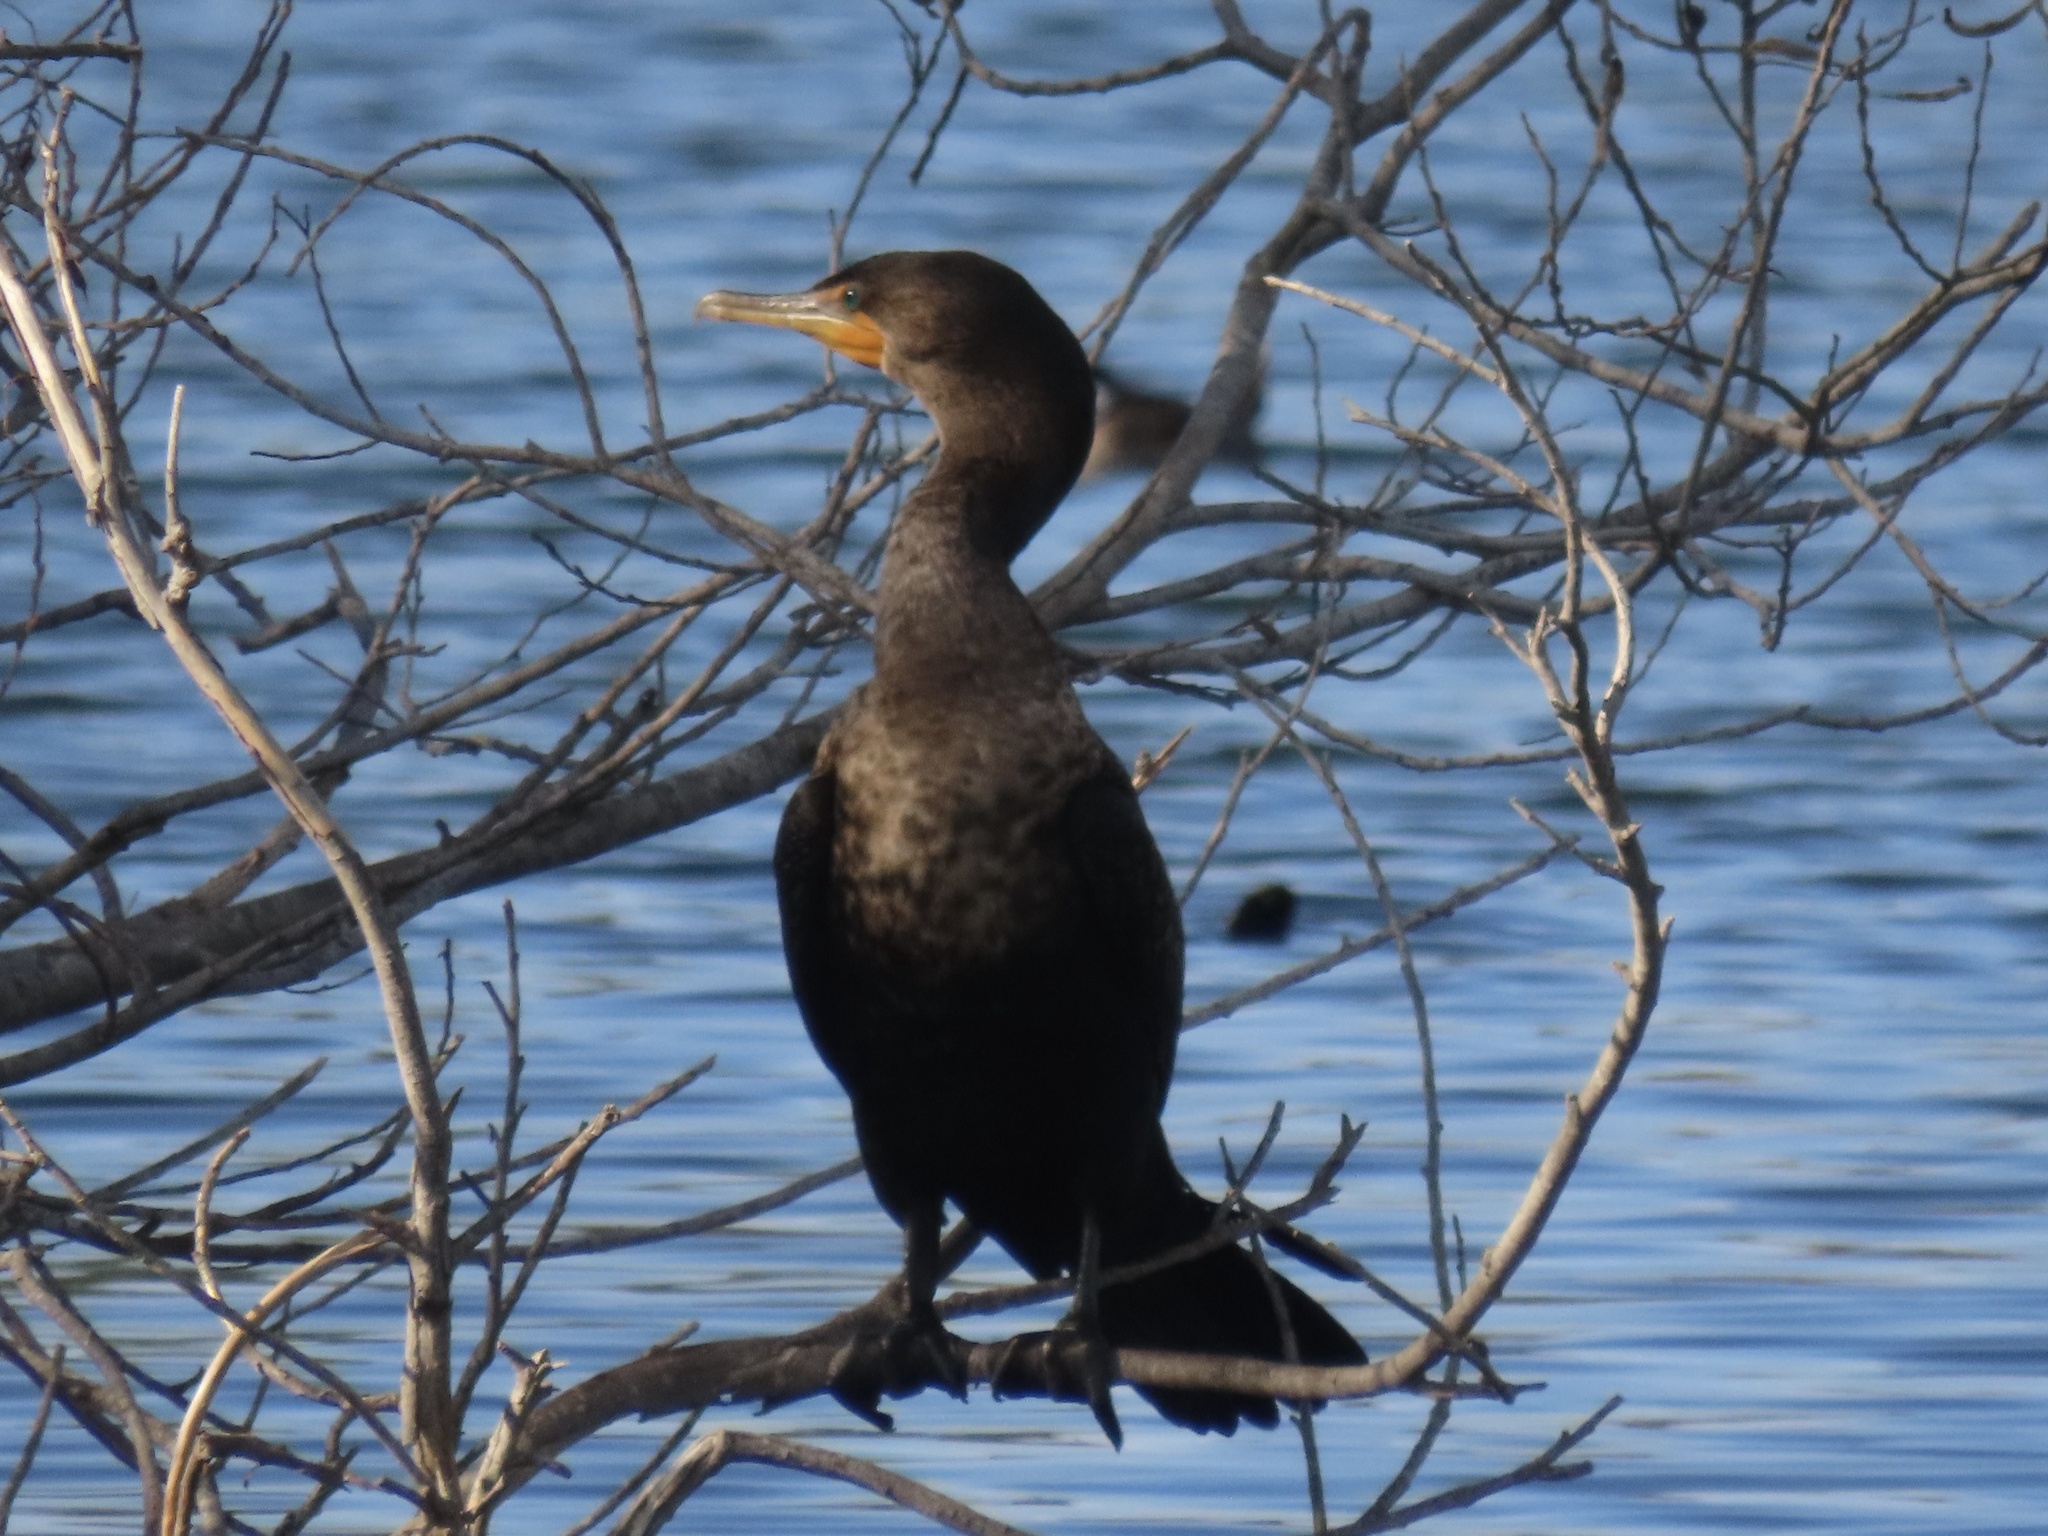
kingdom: Animalia
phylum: Chordata
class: Aves
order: Suliformes
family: Phalacrocoracidae
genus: Phalacrocorax
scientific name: Phalacrocorax auritus
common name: Double-crested cormorant
